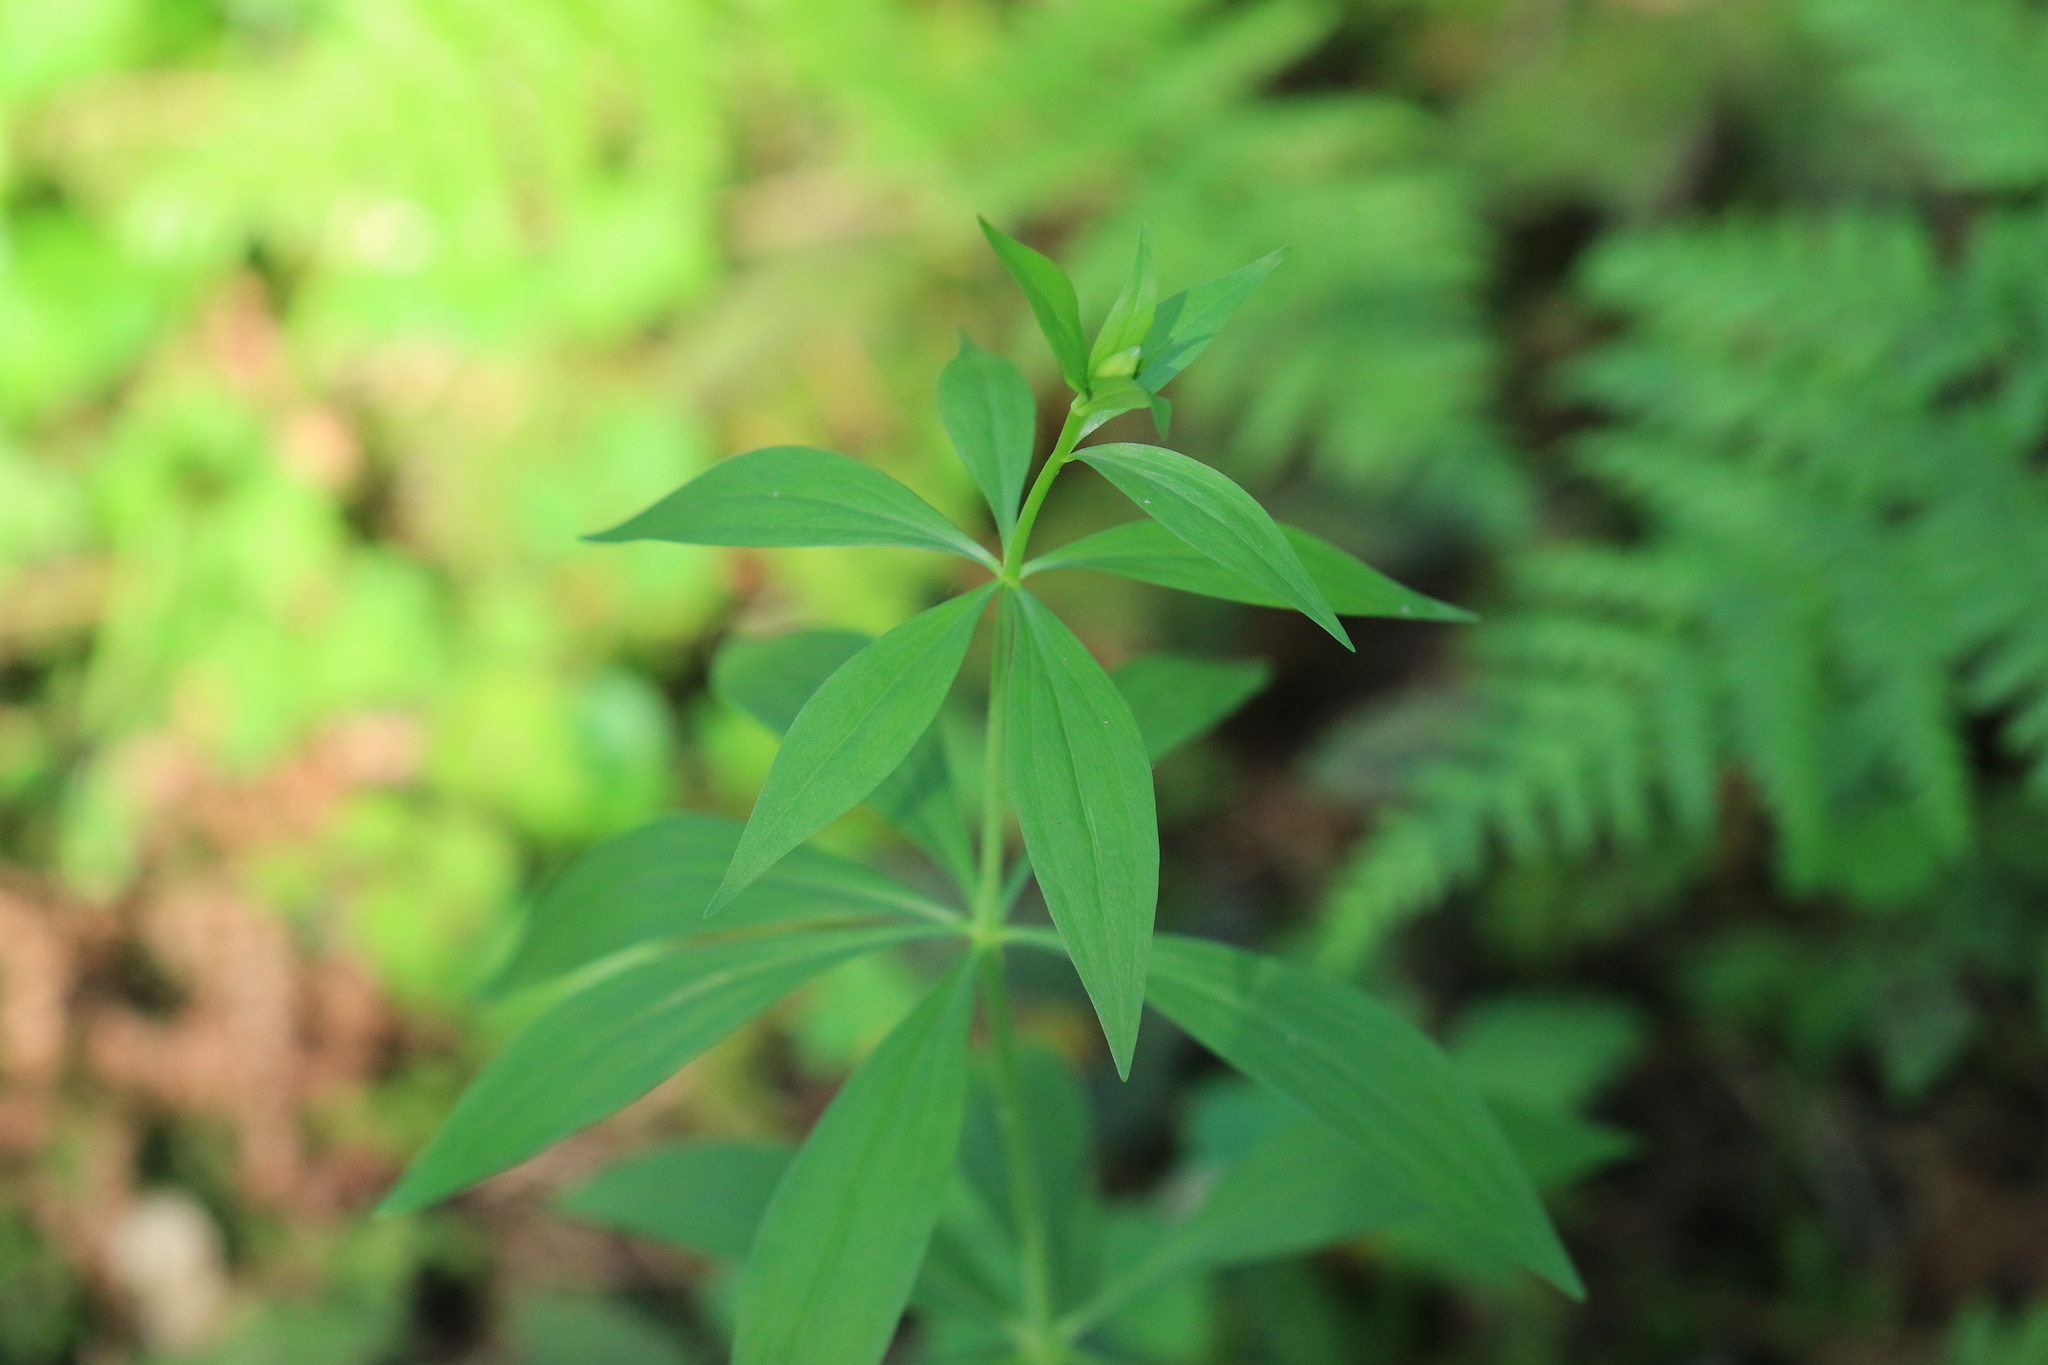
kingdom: Plantae
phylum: Tracheophyta
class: Liliopsida
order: Liliales
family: Liliaceae
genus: Lilium
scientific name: Lilium columbianum
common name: Columbia lily
